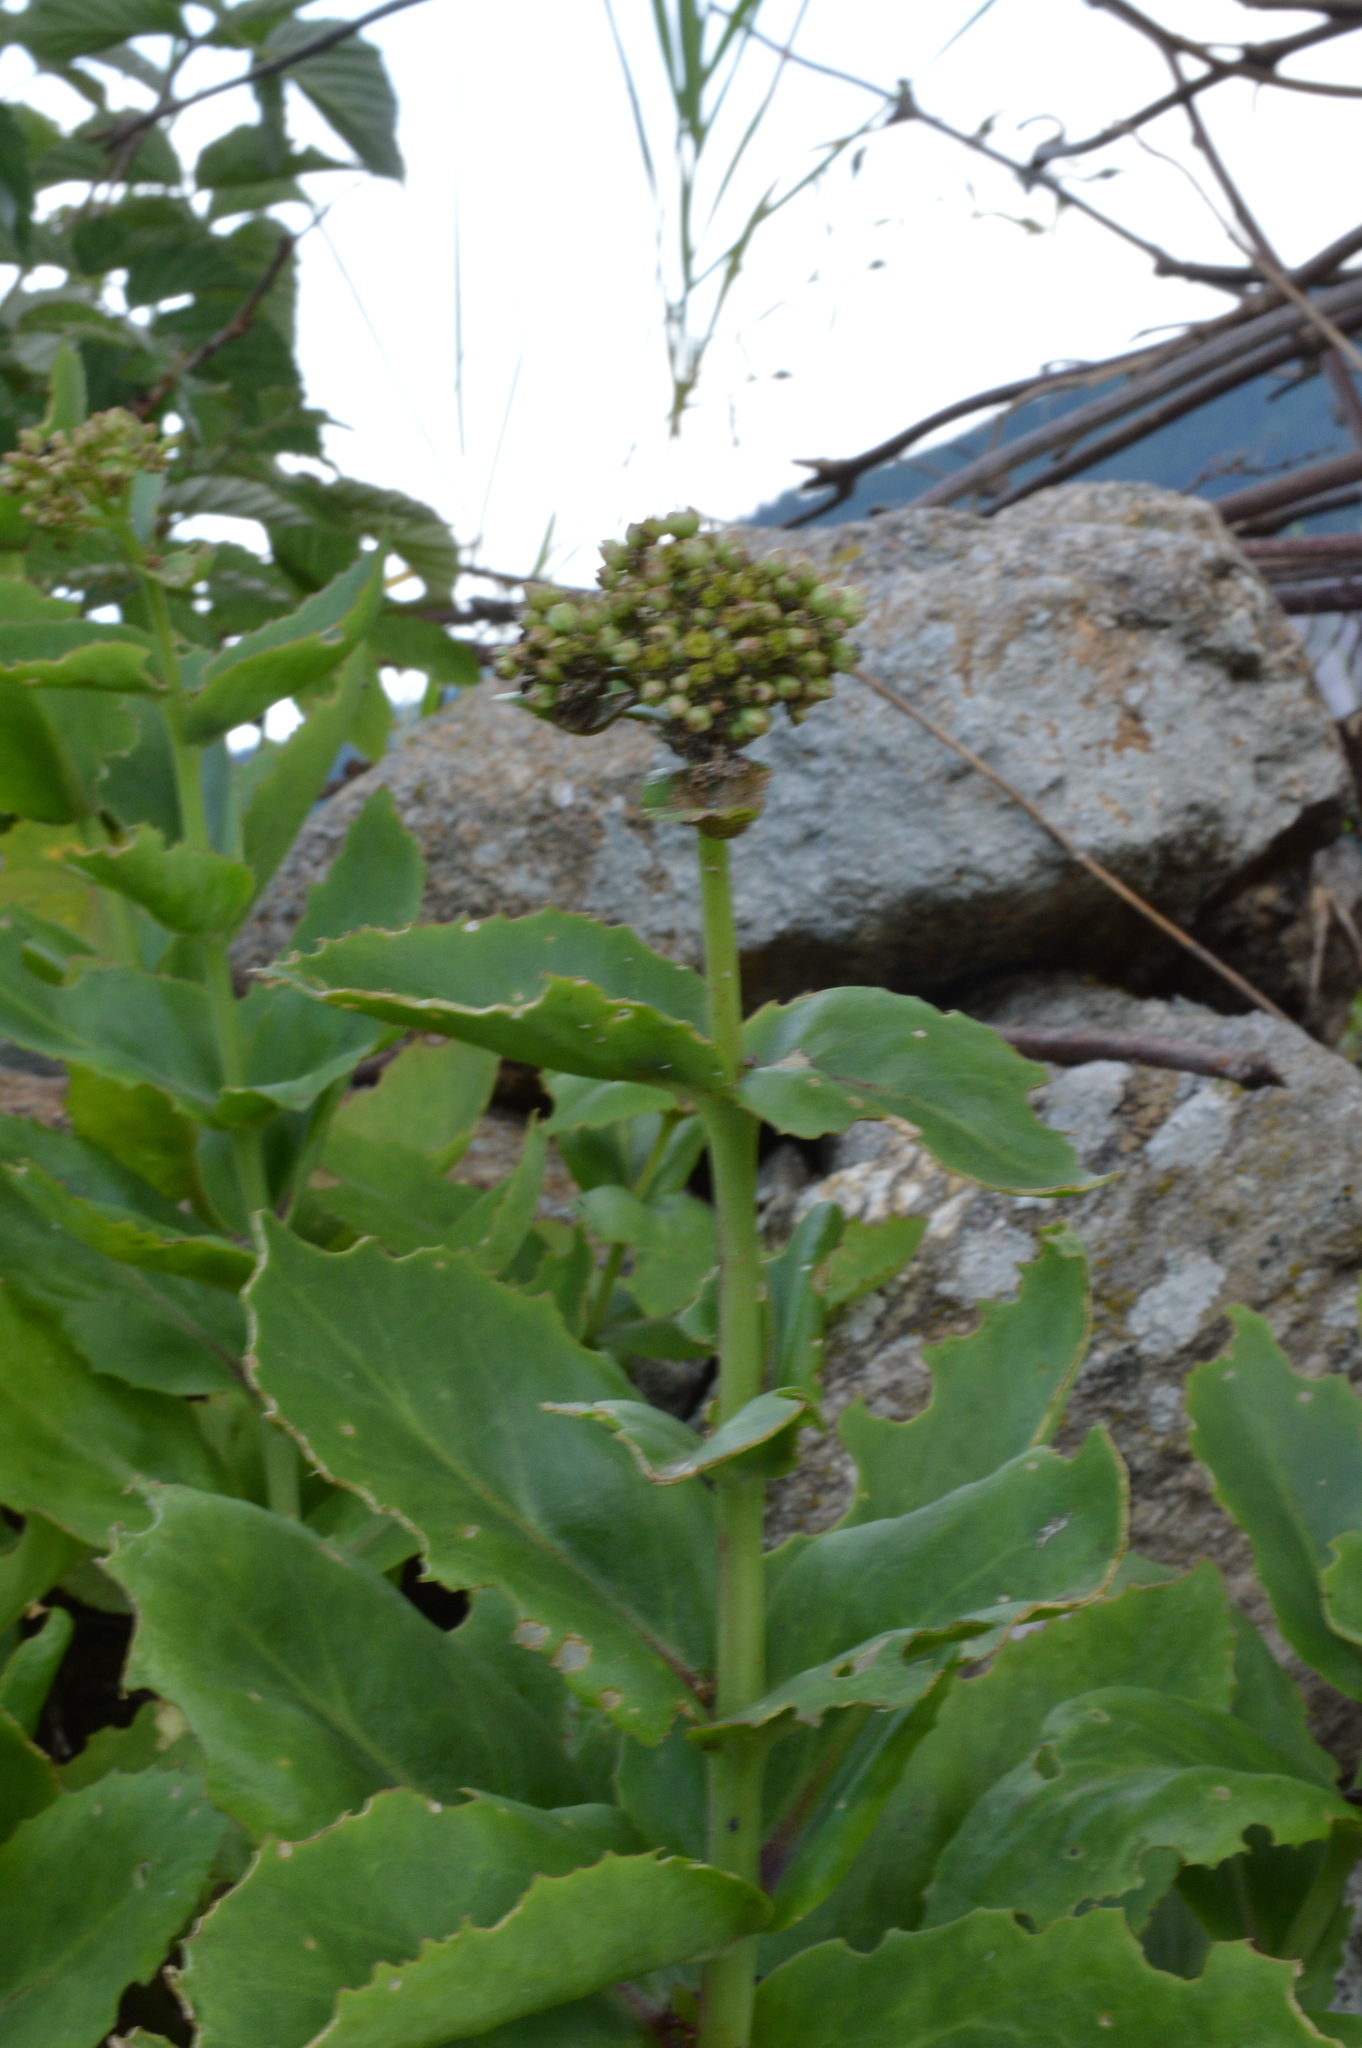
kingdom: Plantae
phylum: Tracheophyta
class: Magnoliopsida
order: Saxifragales
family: Crassulaceae
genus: Hylotelephium
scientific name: Hylotelephium maximum
